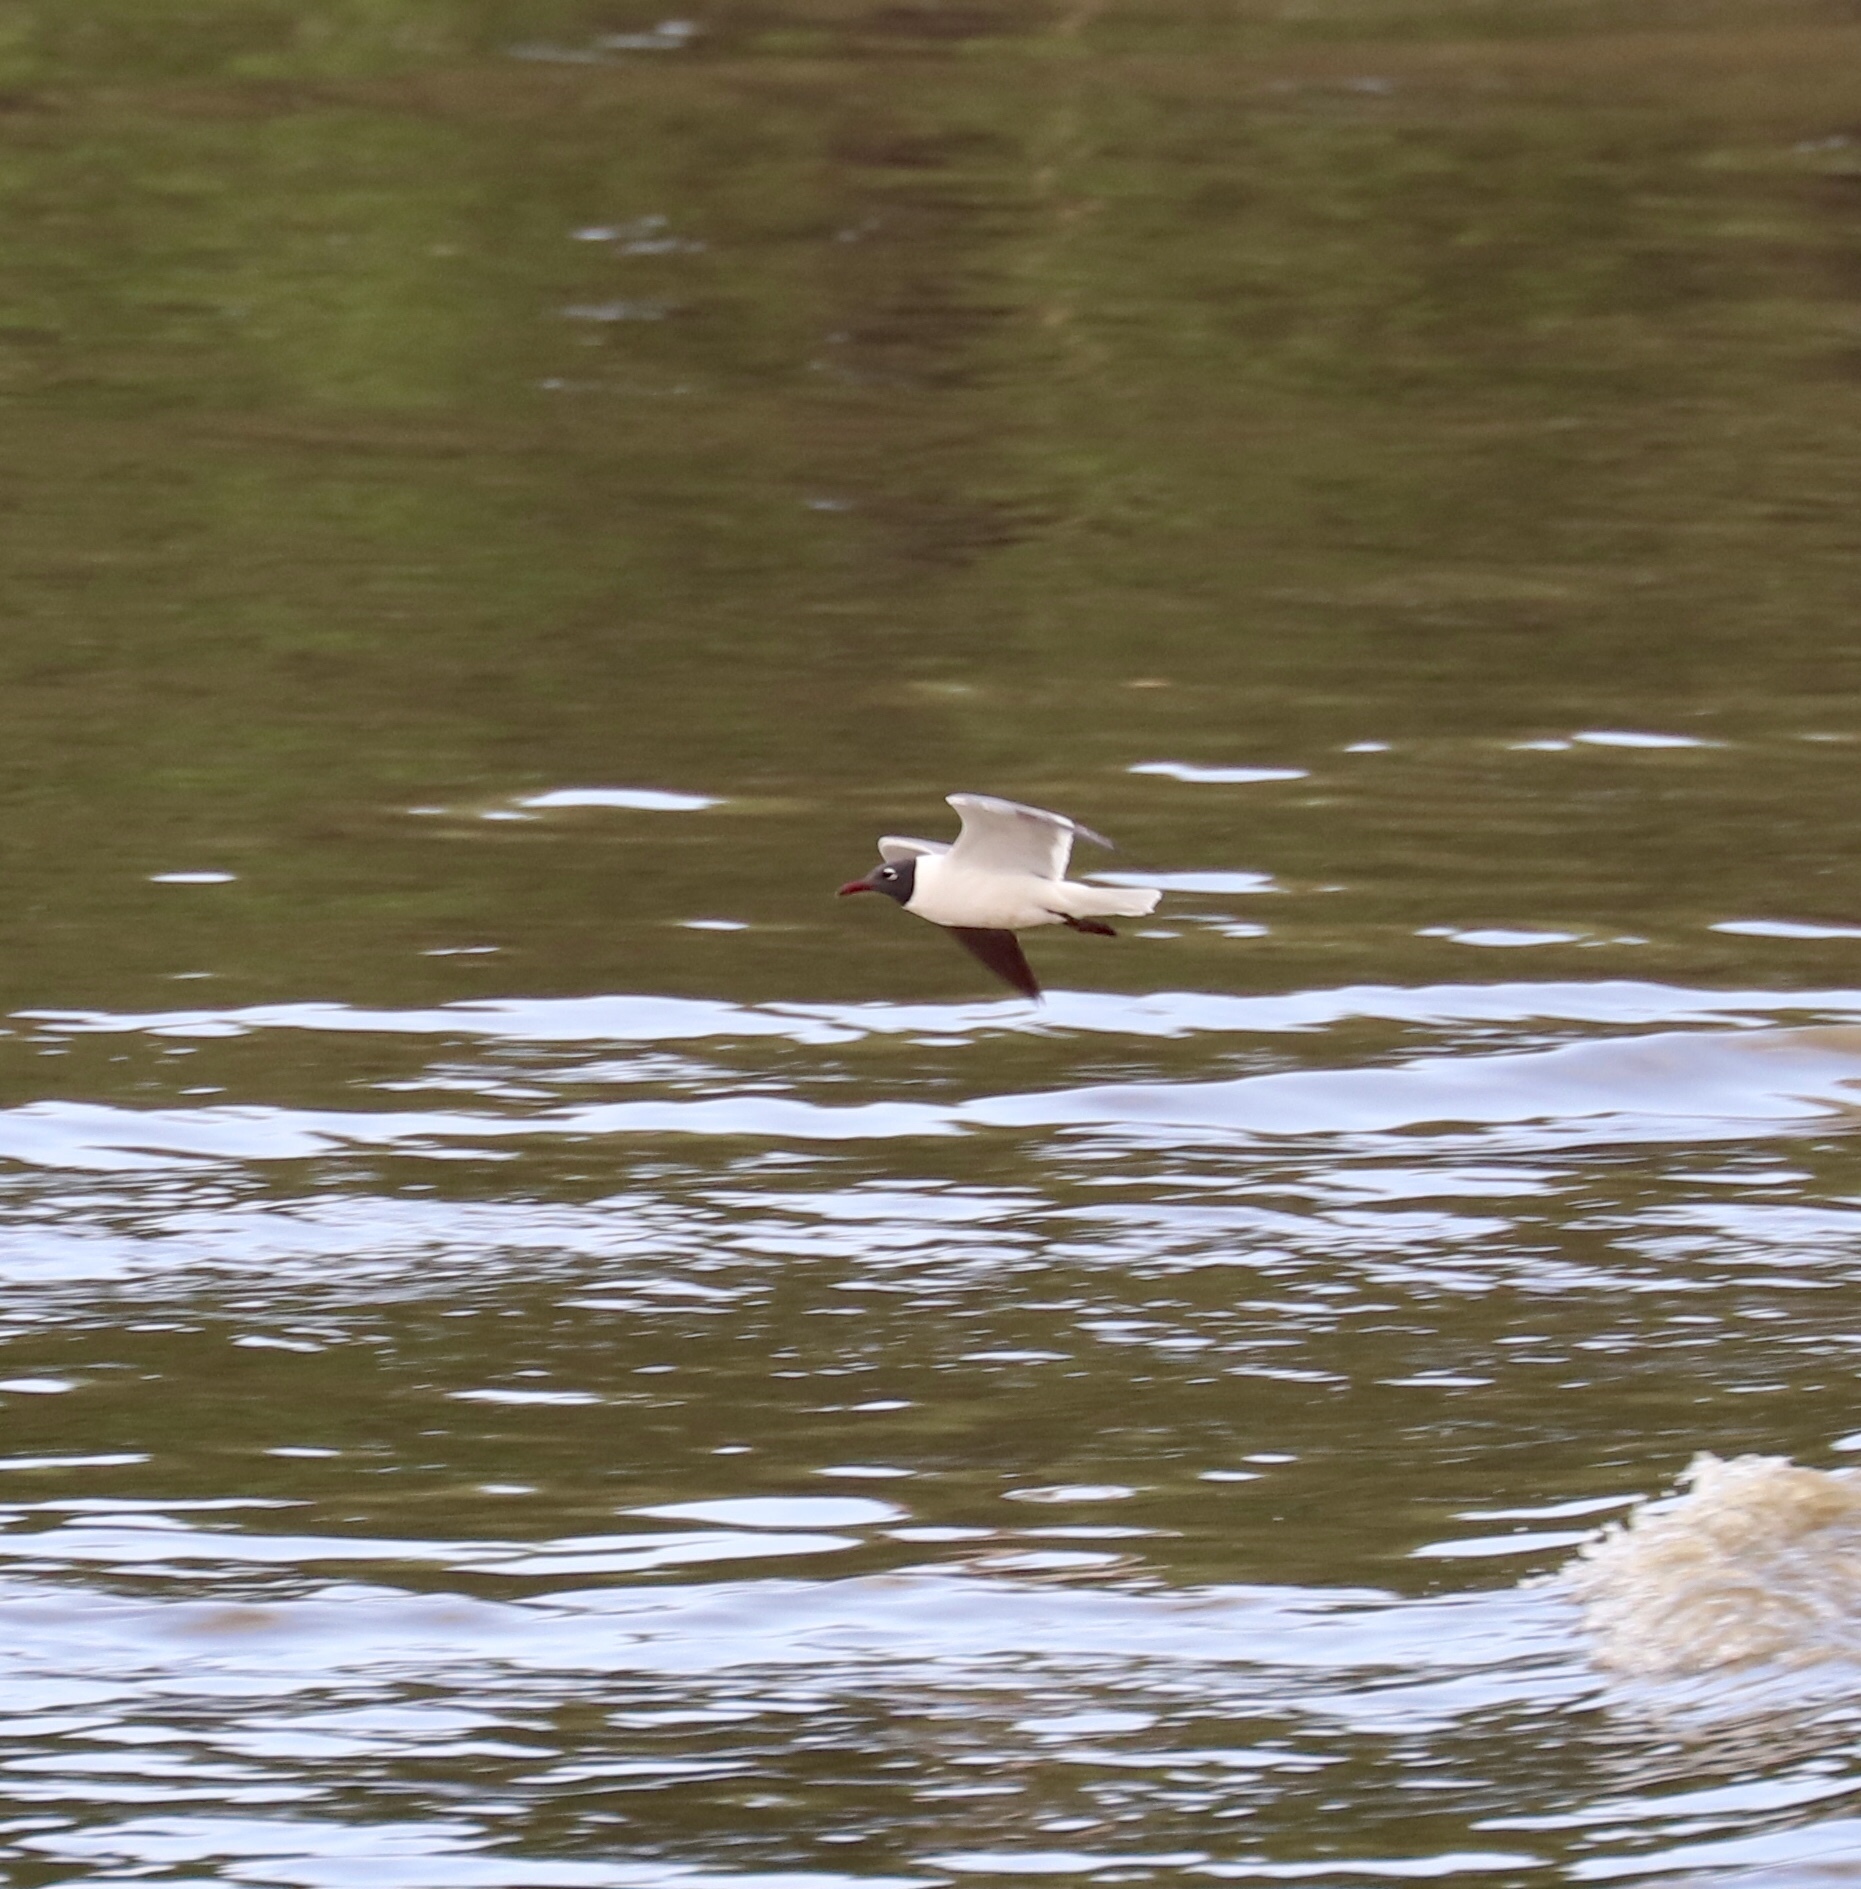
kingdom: Animalia
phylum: Chordata
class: Aves
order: Charadriiformes
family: Laridae
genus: Leucophaeus
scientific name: Leucophaeus atricilla
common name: Laughing gull
